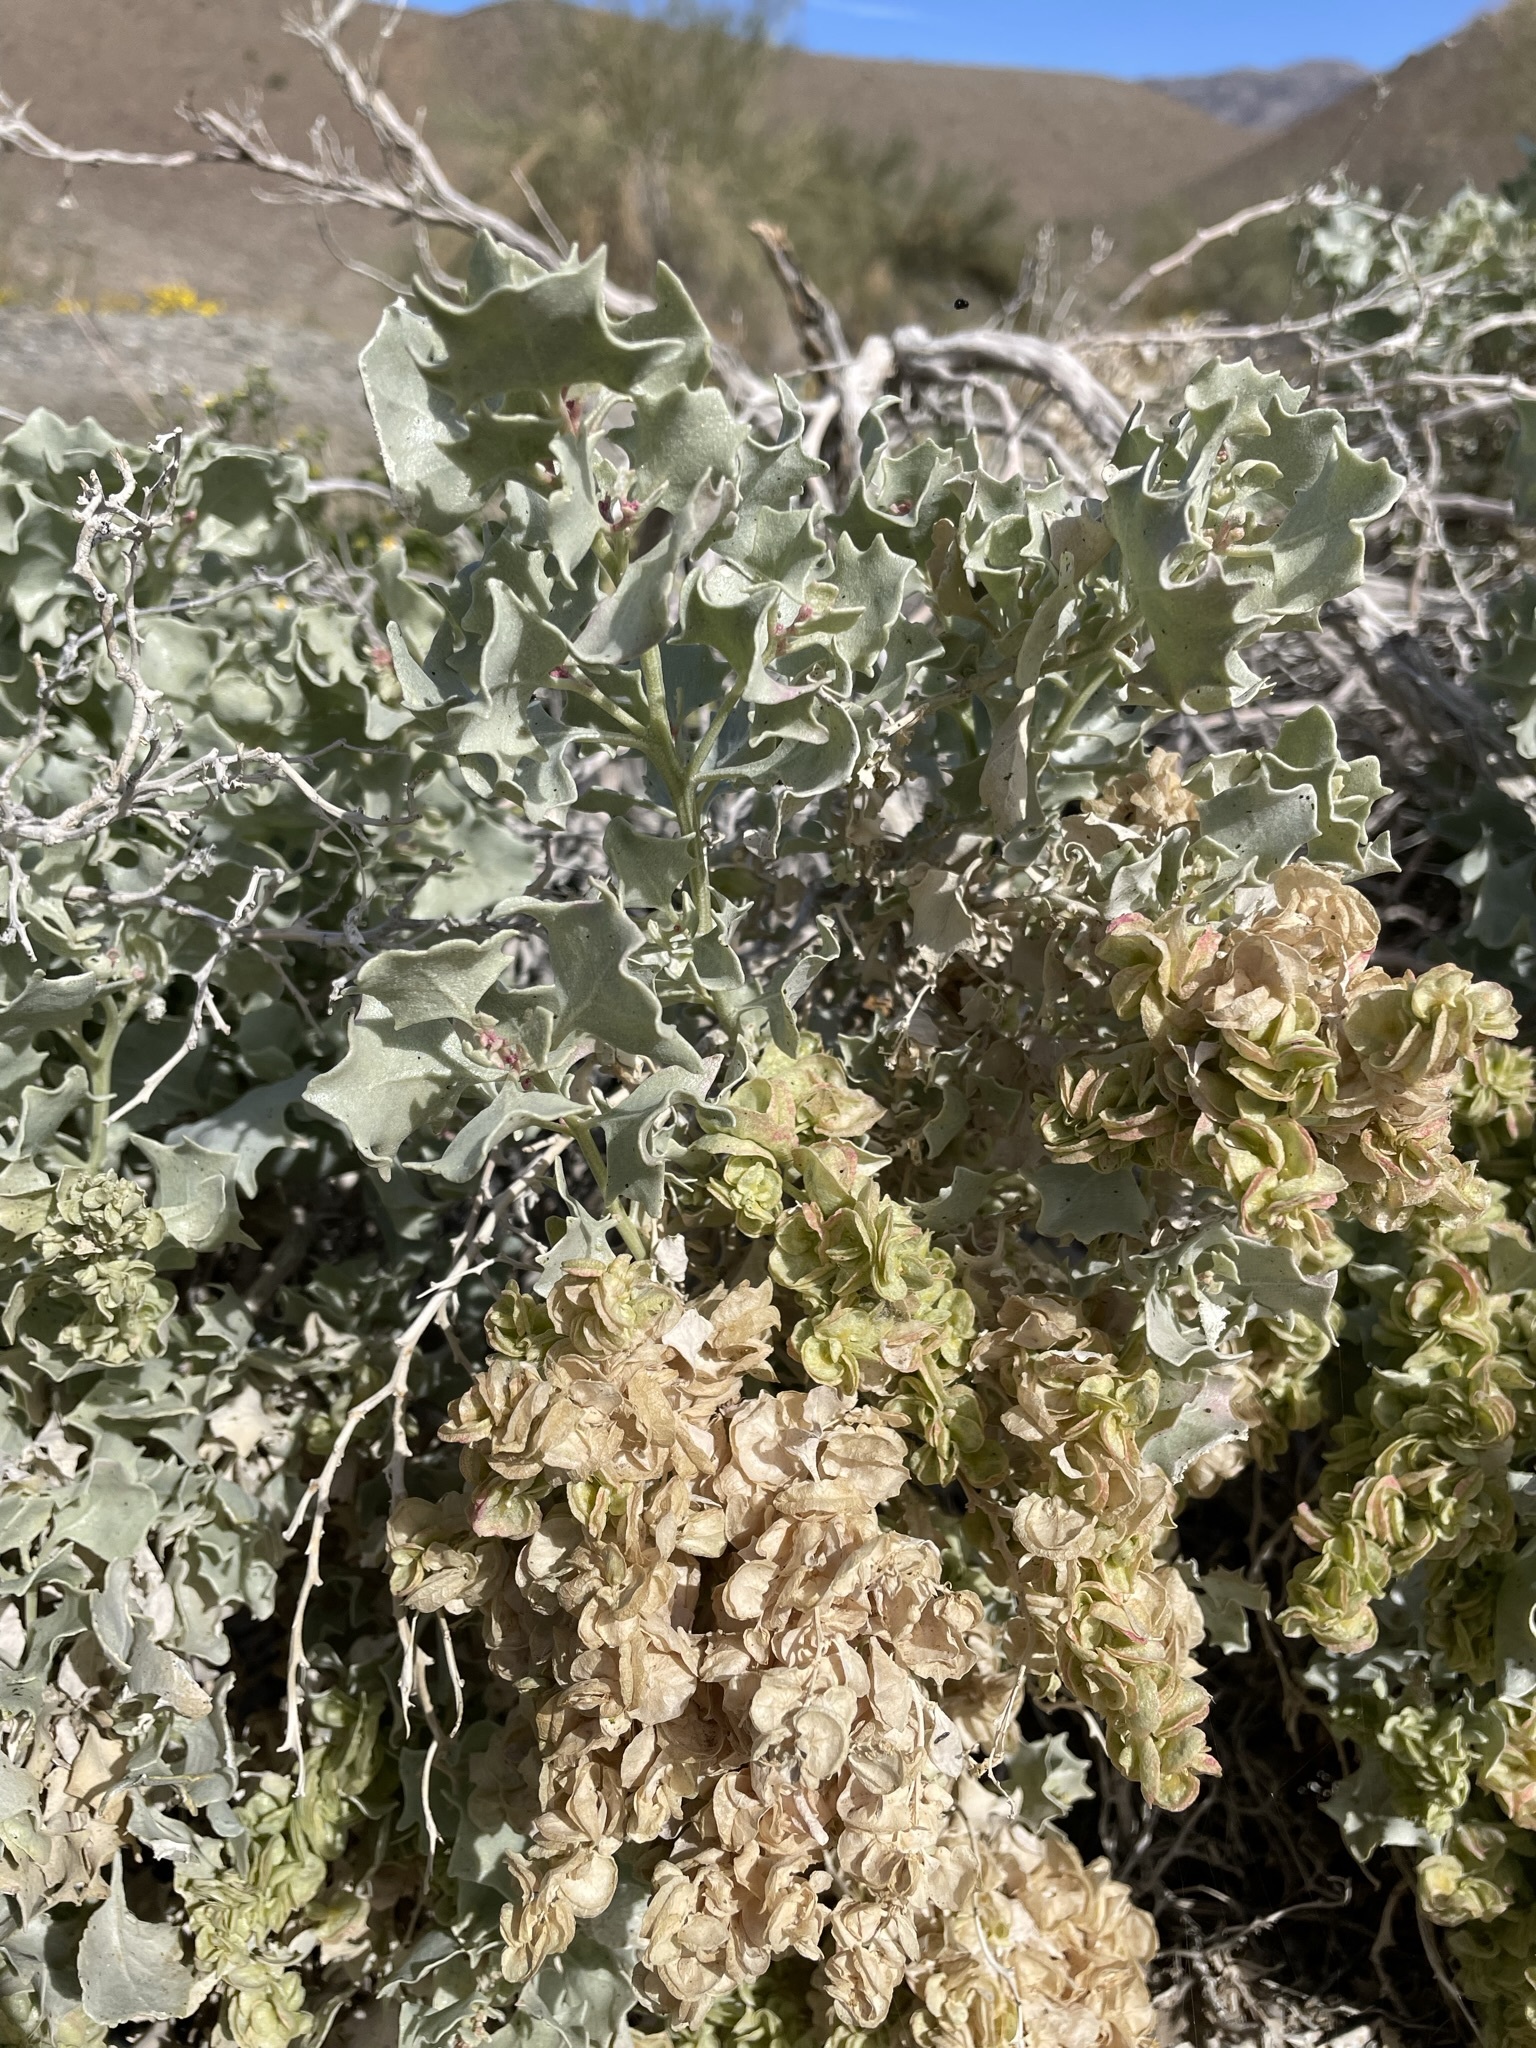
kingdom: Plantae
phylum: Tracheophyta
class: Magnoliopsida
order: Caryophyllales
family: Amaranthaceae
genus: Atriplex
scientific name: Atriplex hymenelytra
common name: Desert-holly
